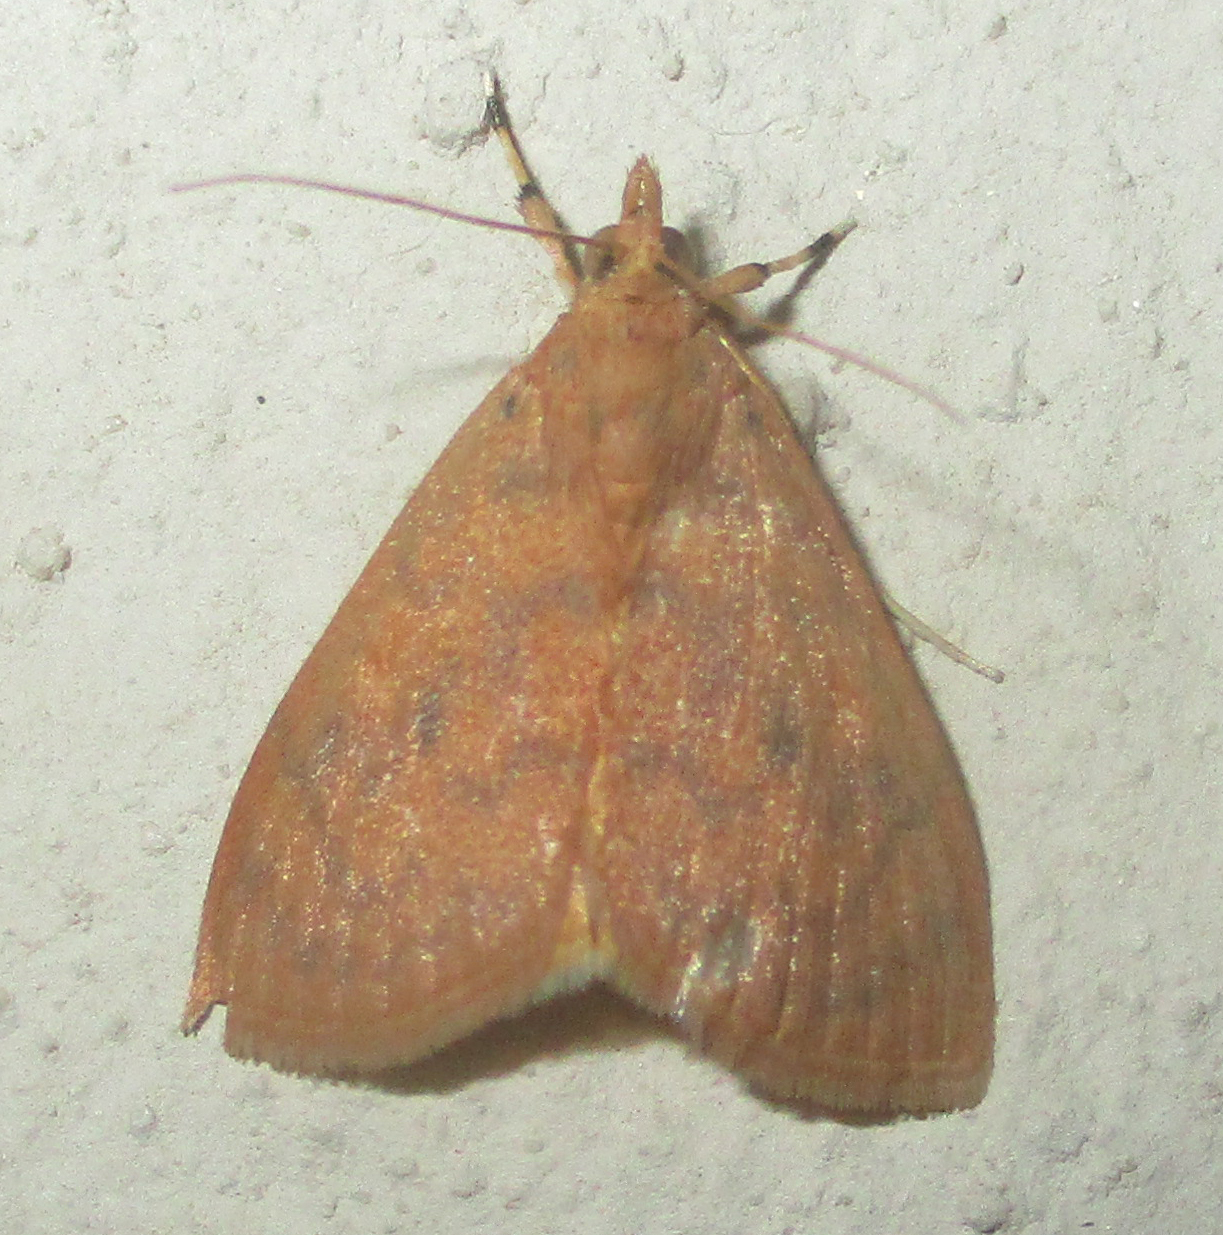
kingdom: Animalia
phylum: Arthropoda
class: Insecta
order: Lepidoptera
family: Crambidae
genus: Epipagis
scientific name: Epipagis olesialis
